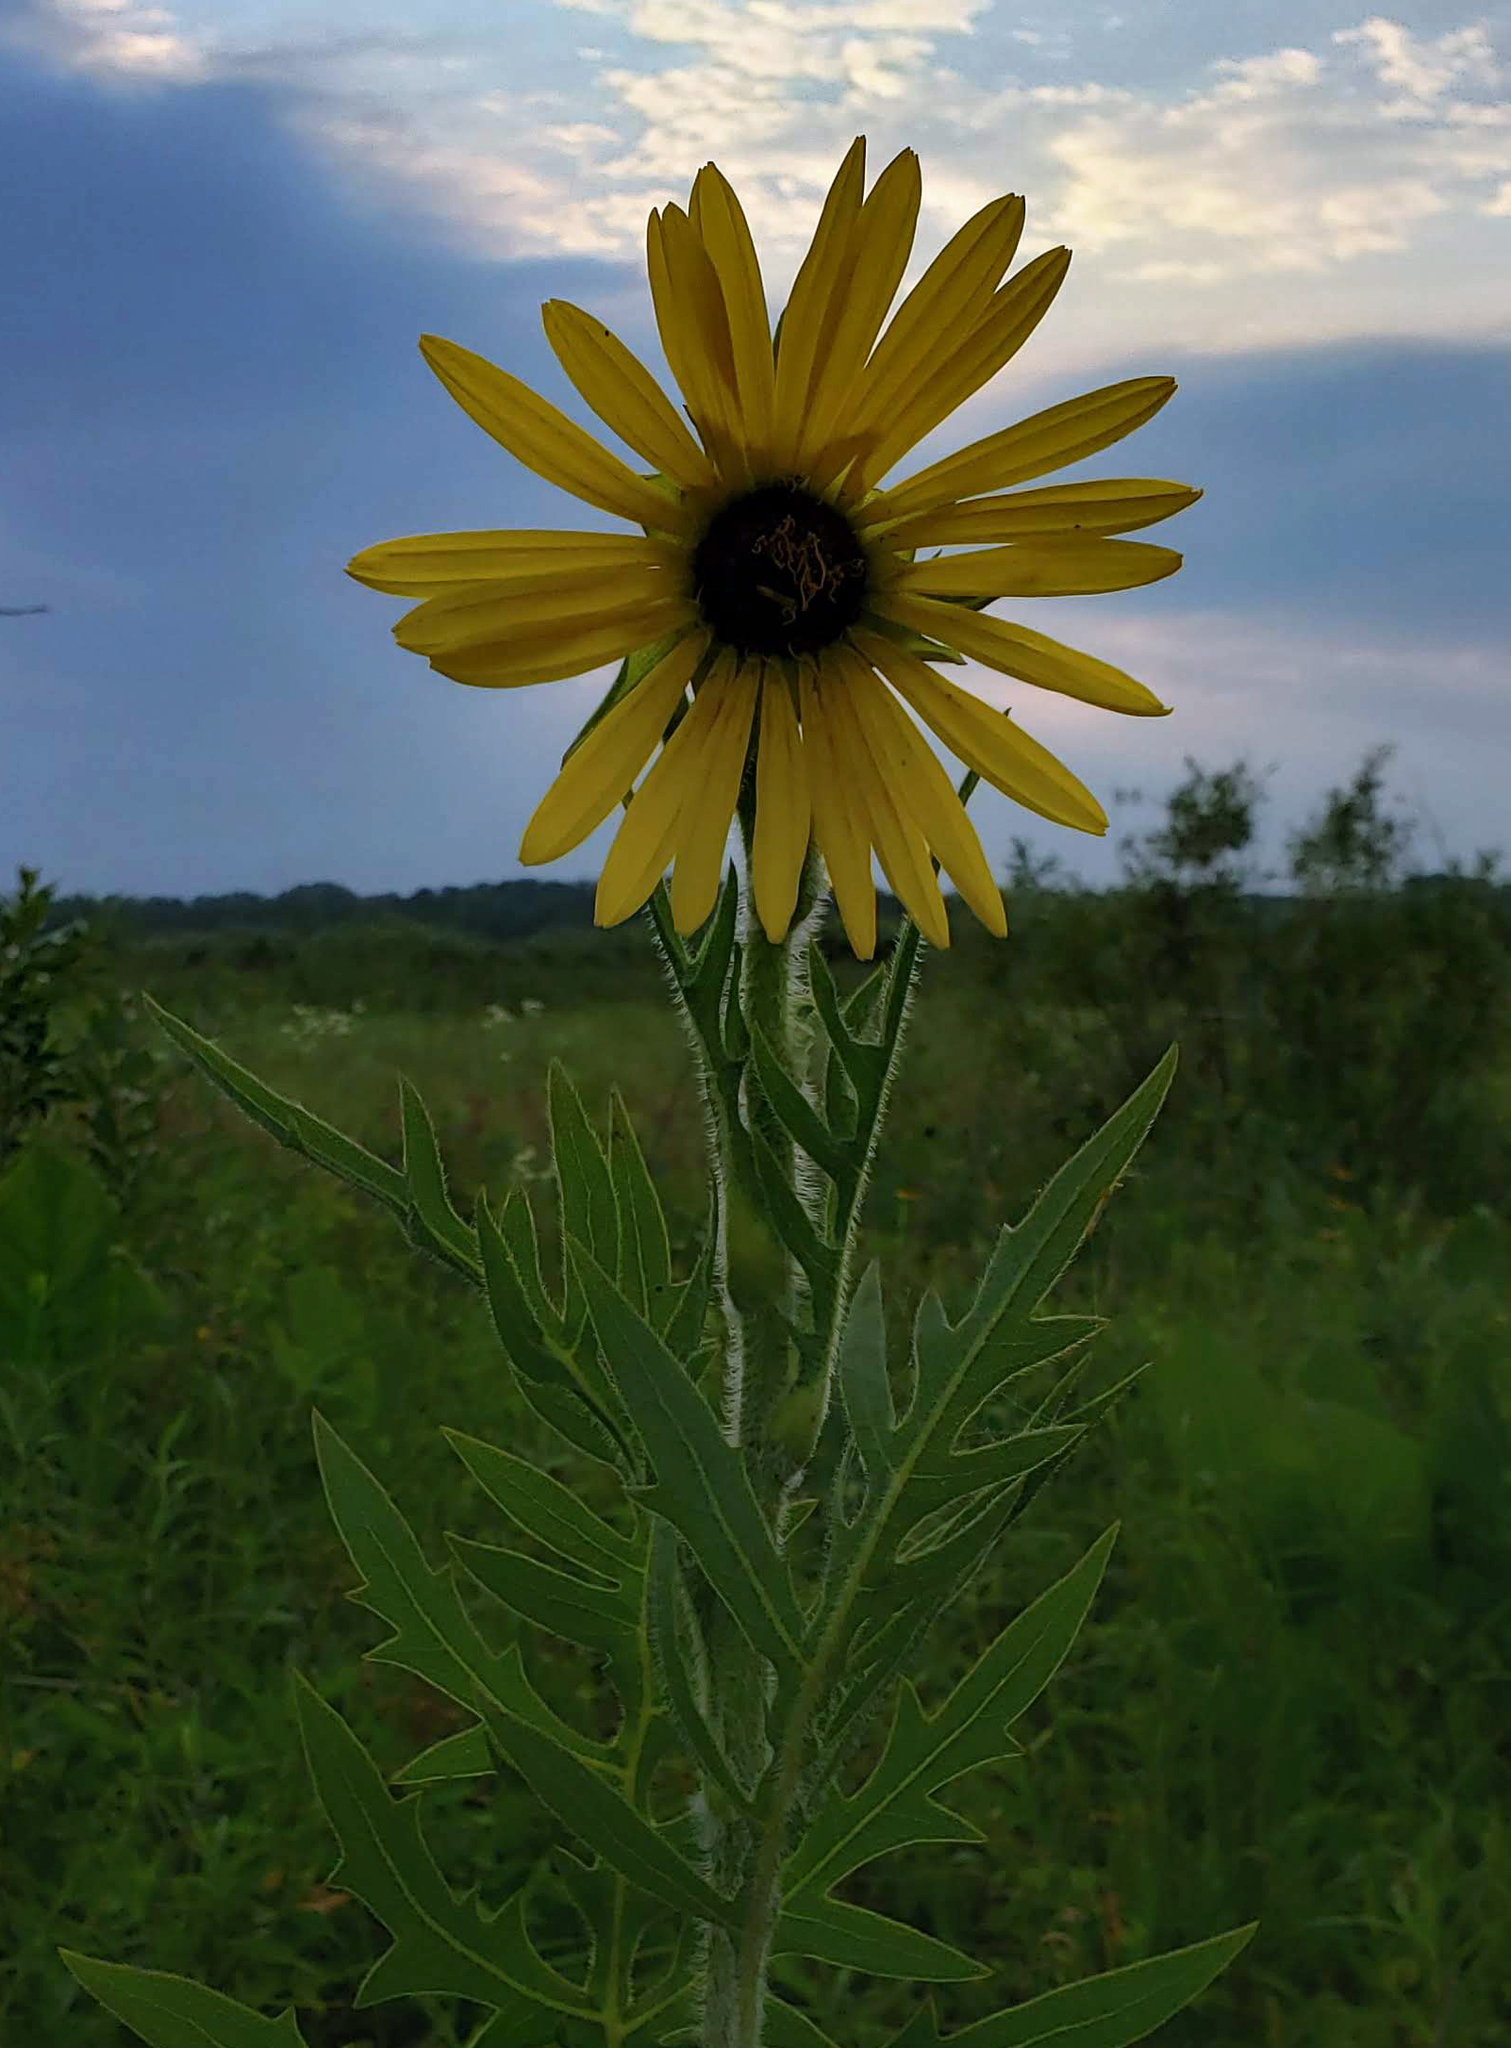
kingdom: Plantae
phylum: Tracheophyta
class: Magnoliopsida
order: Asterales
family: Asteraceae
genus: Silphium
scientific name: Silphium laciniatum
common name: Polarplant
